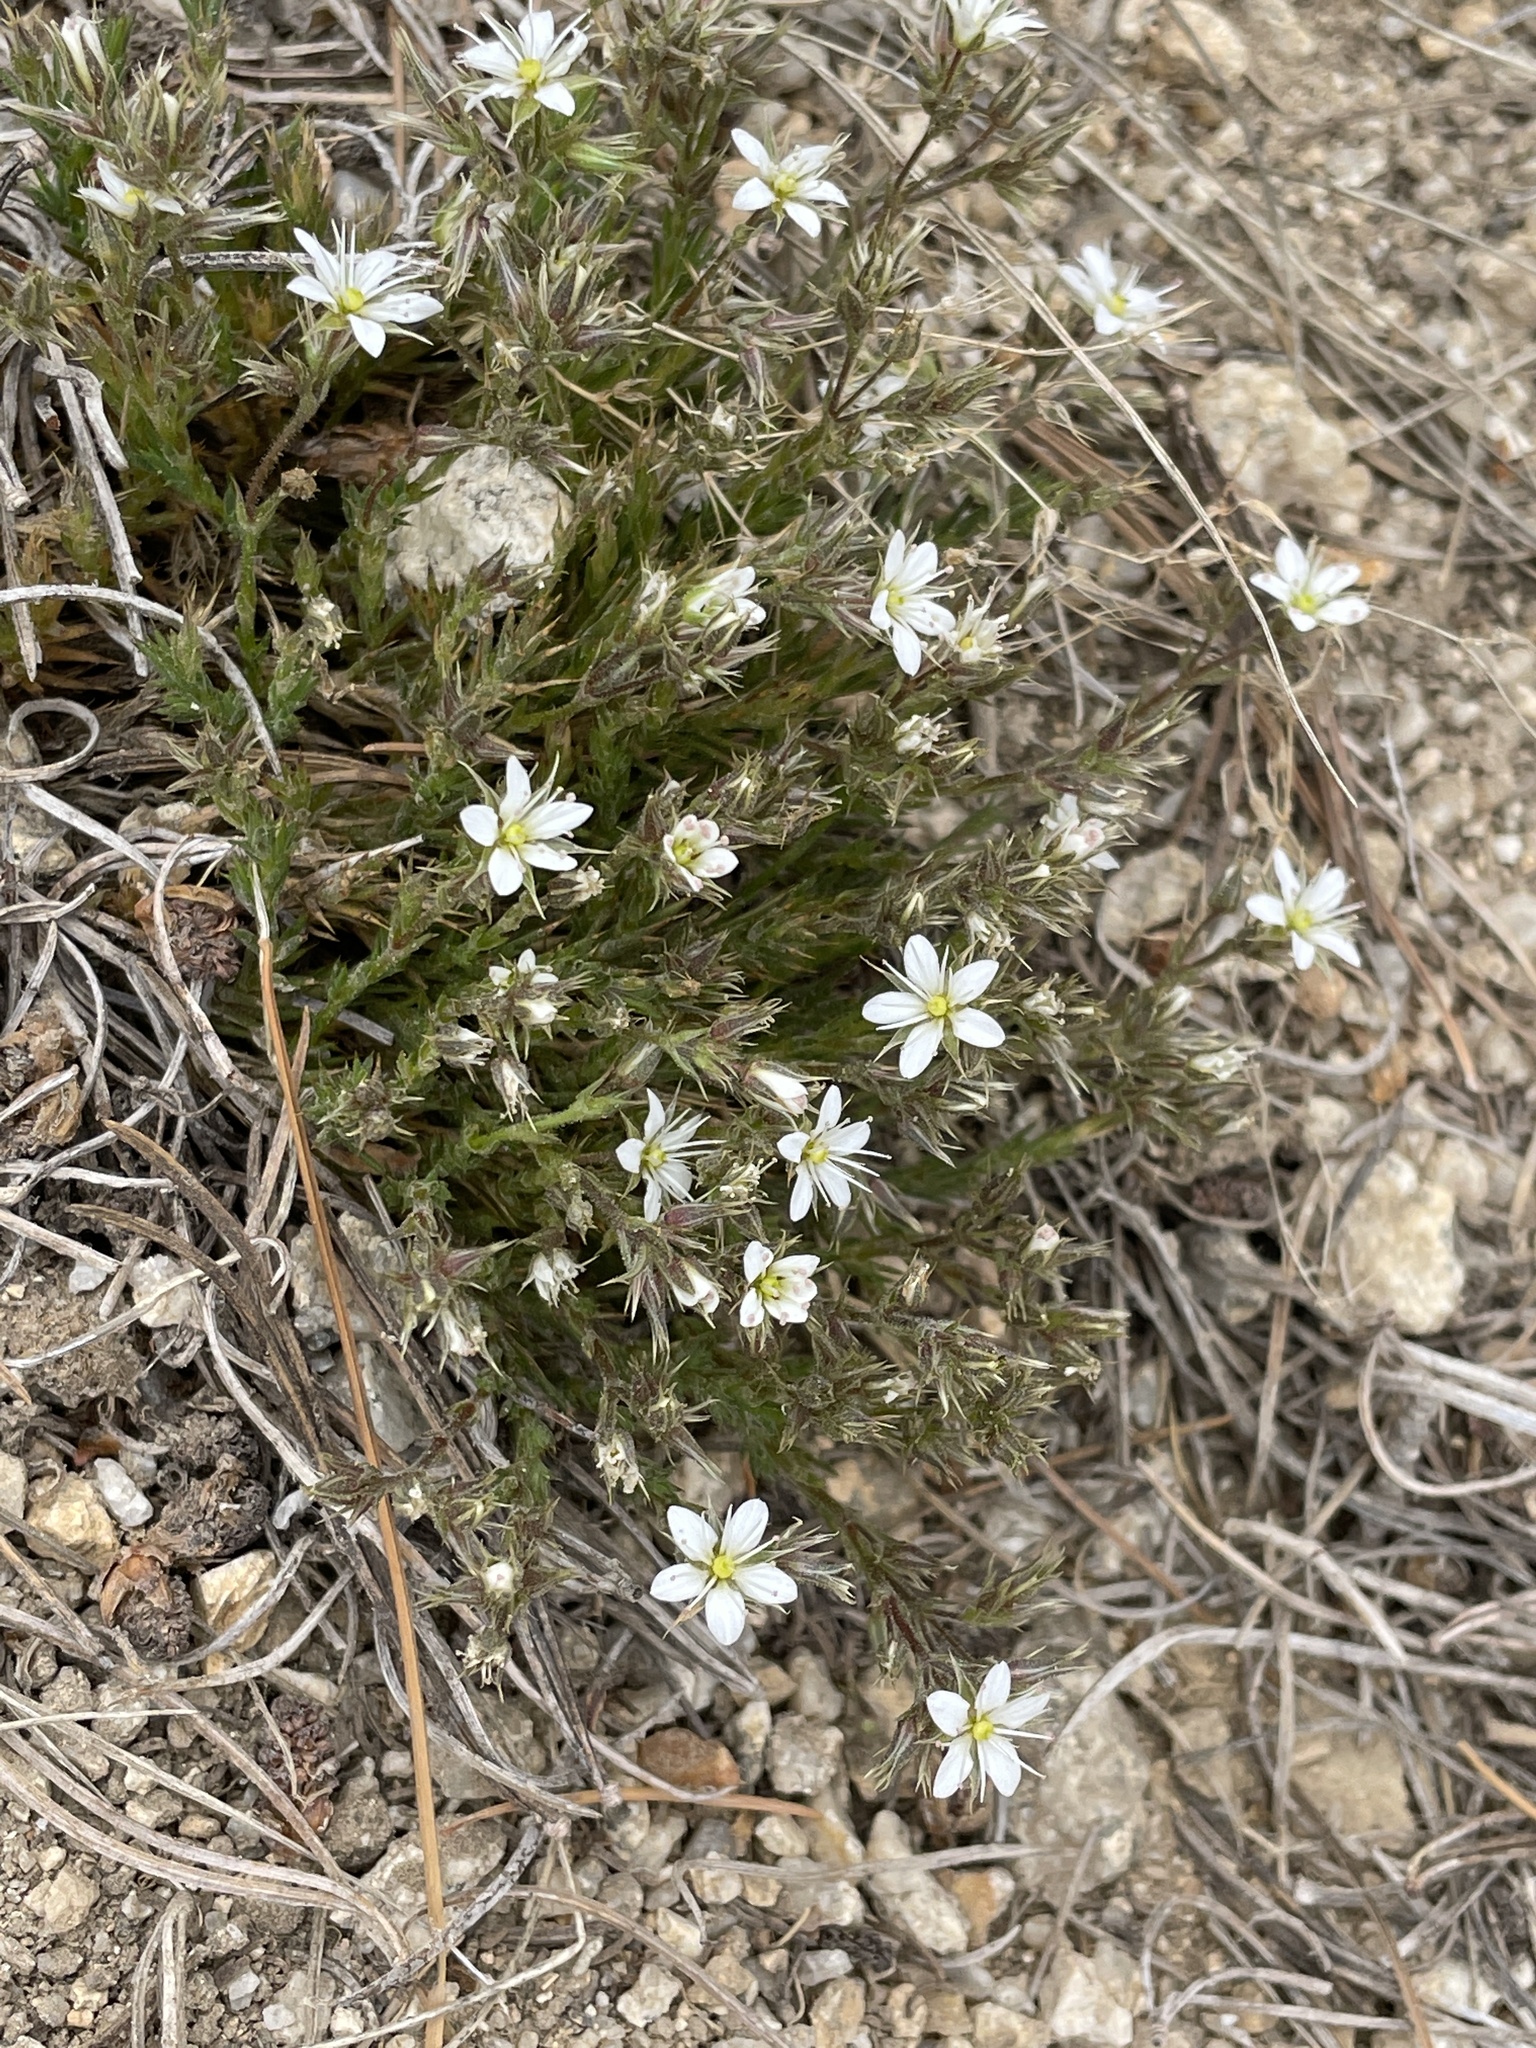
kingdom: Plantae
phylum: Tracheophyta
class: Magnoliopsida
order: Caryophyllales
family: Caryophyllaceae
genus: Sabulina
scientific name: Sabulina nuttallii
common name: Nuttall's stitchwort
